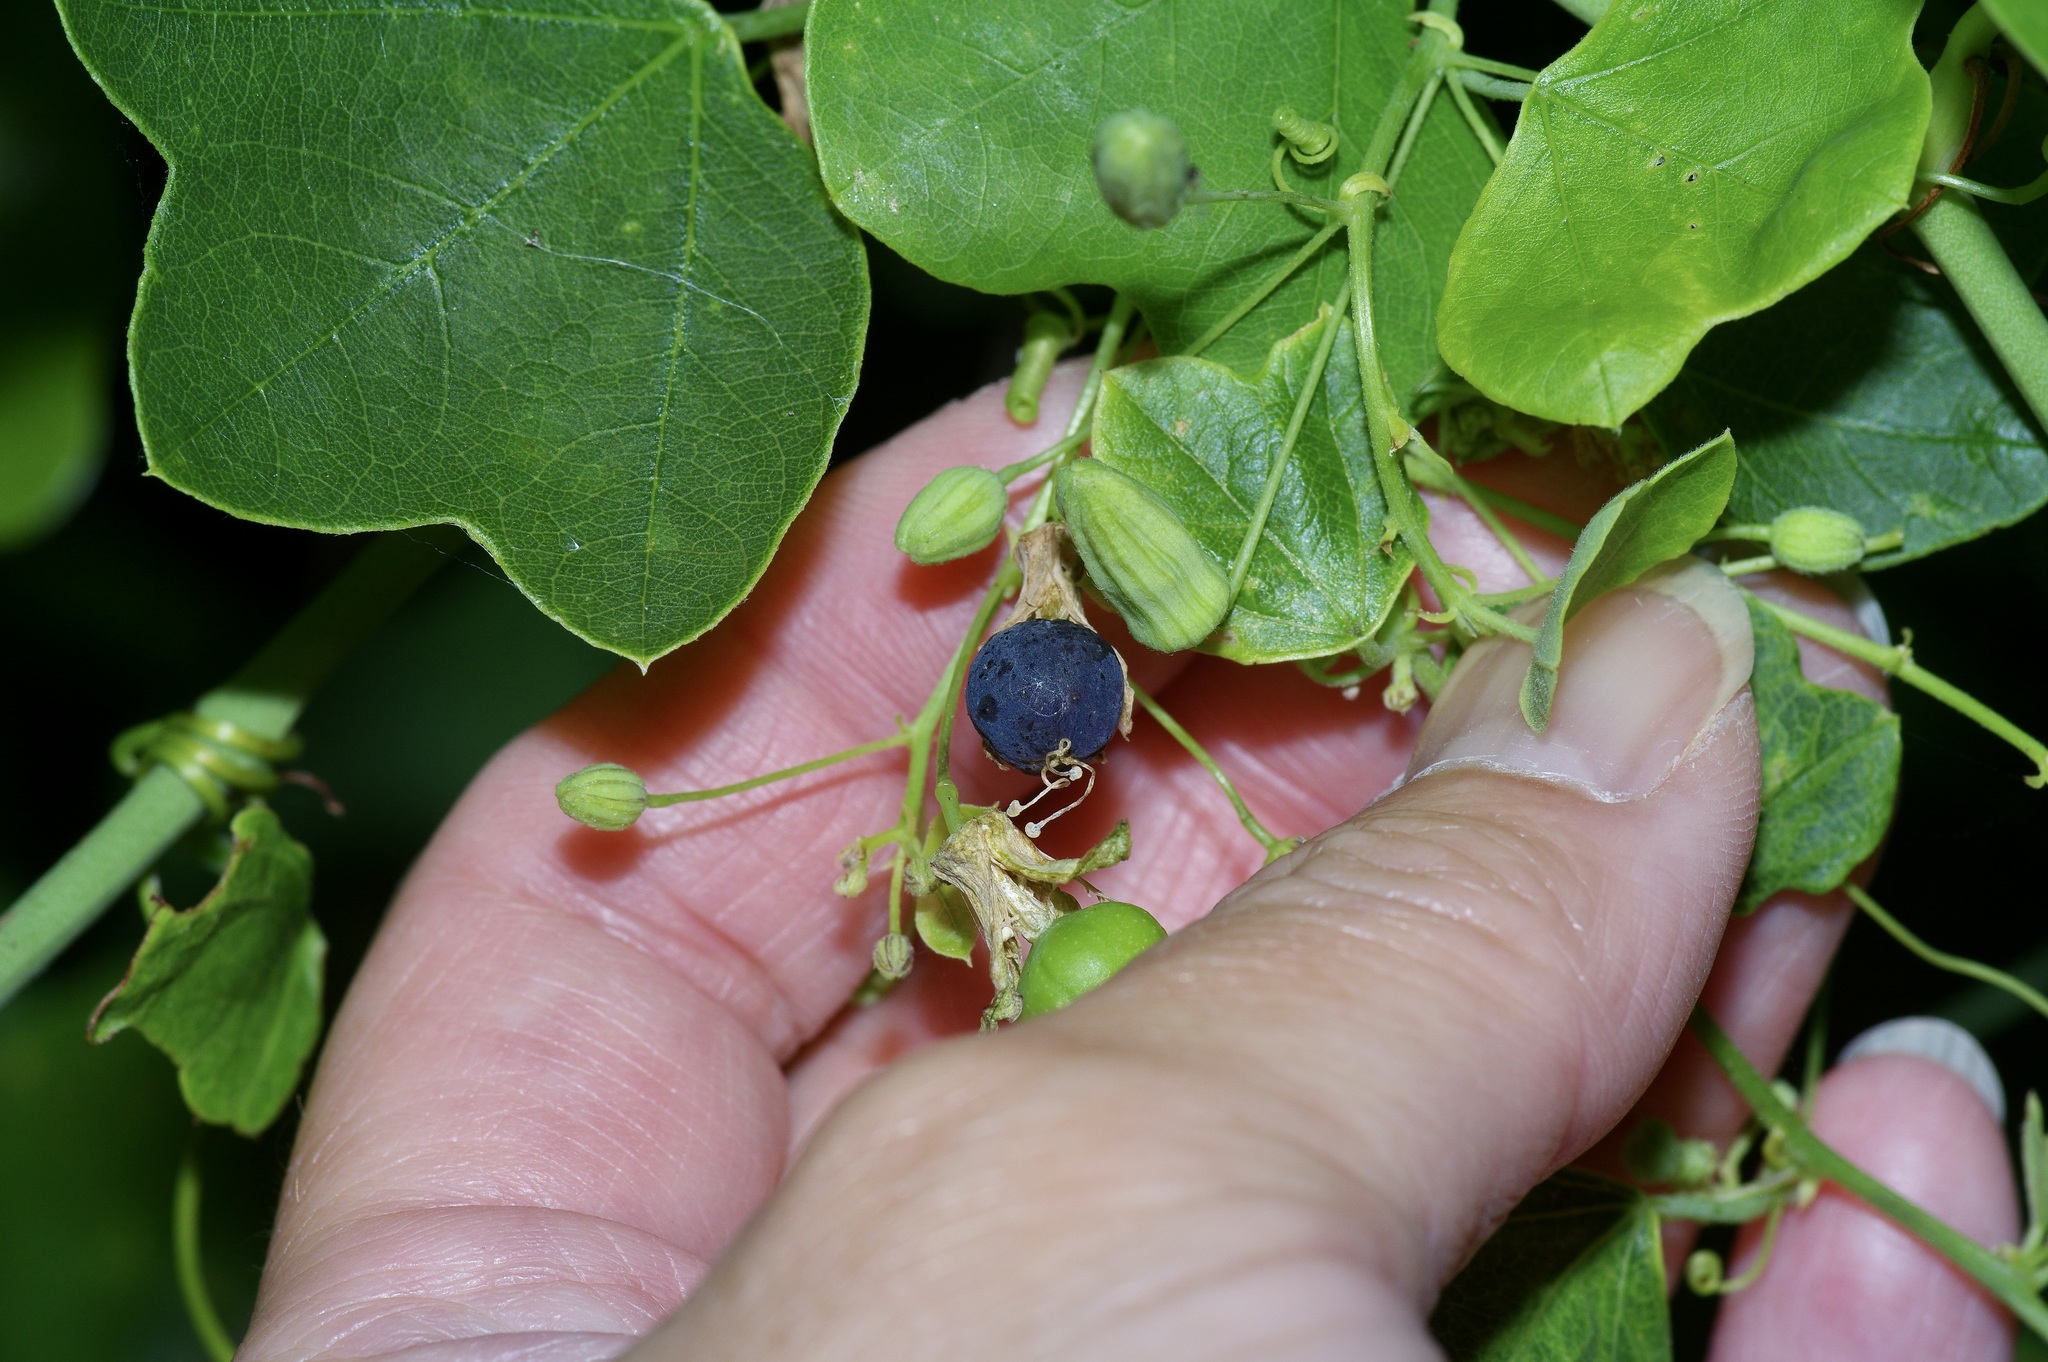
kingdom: Plantae
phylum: Tracheophyta
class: Magnoliopsida
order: Malpighiales
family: Passifloraceae
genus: Passiflora
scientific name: Passiflora lutea
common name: Yellow passionflower
